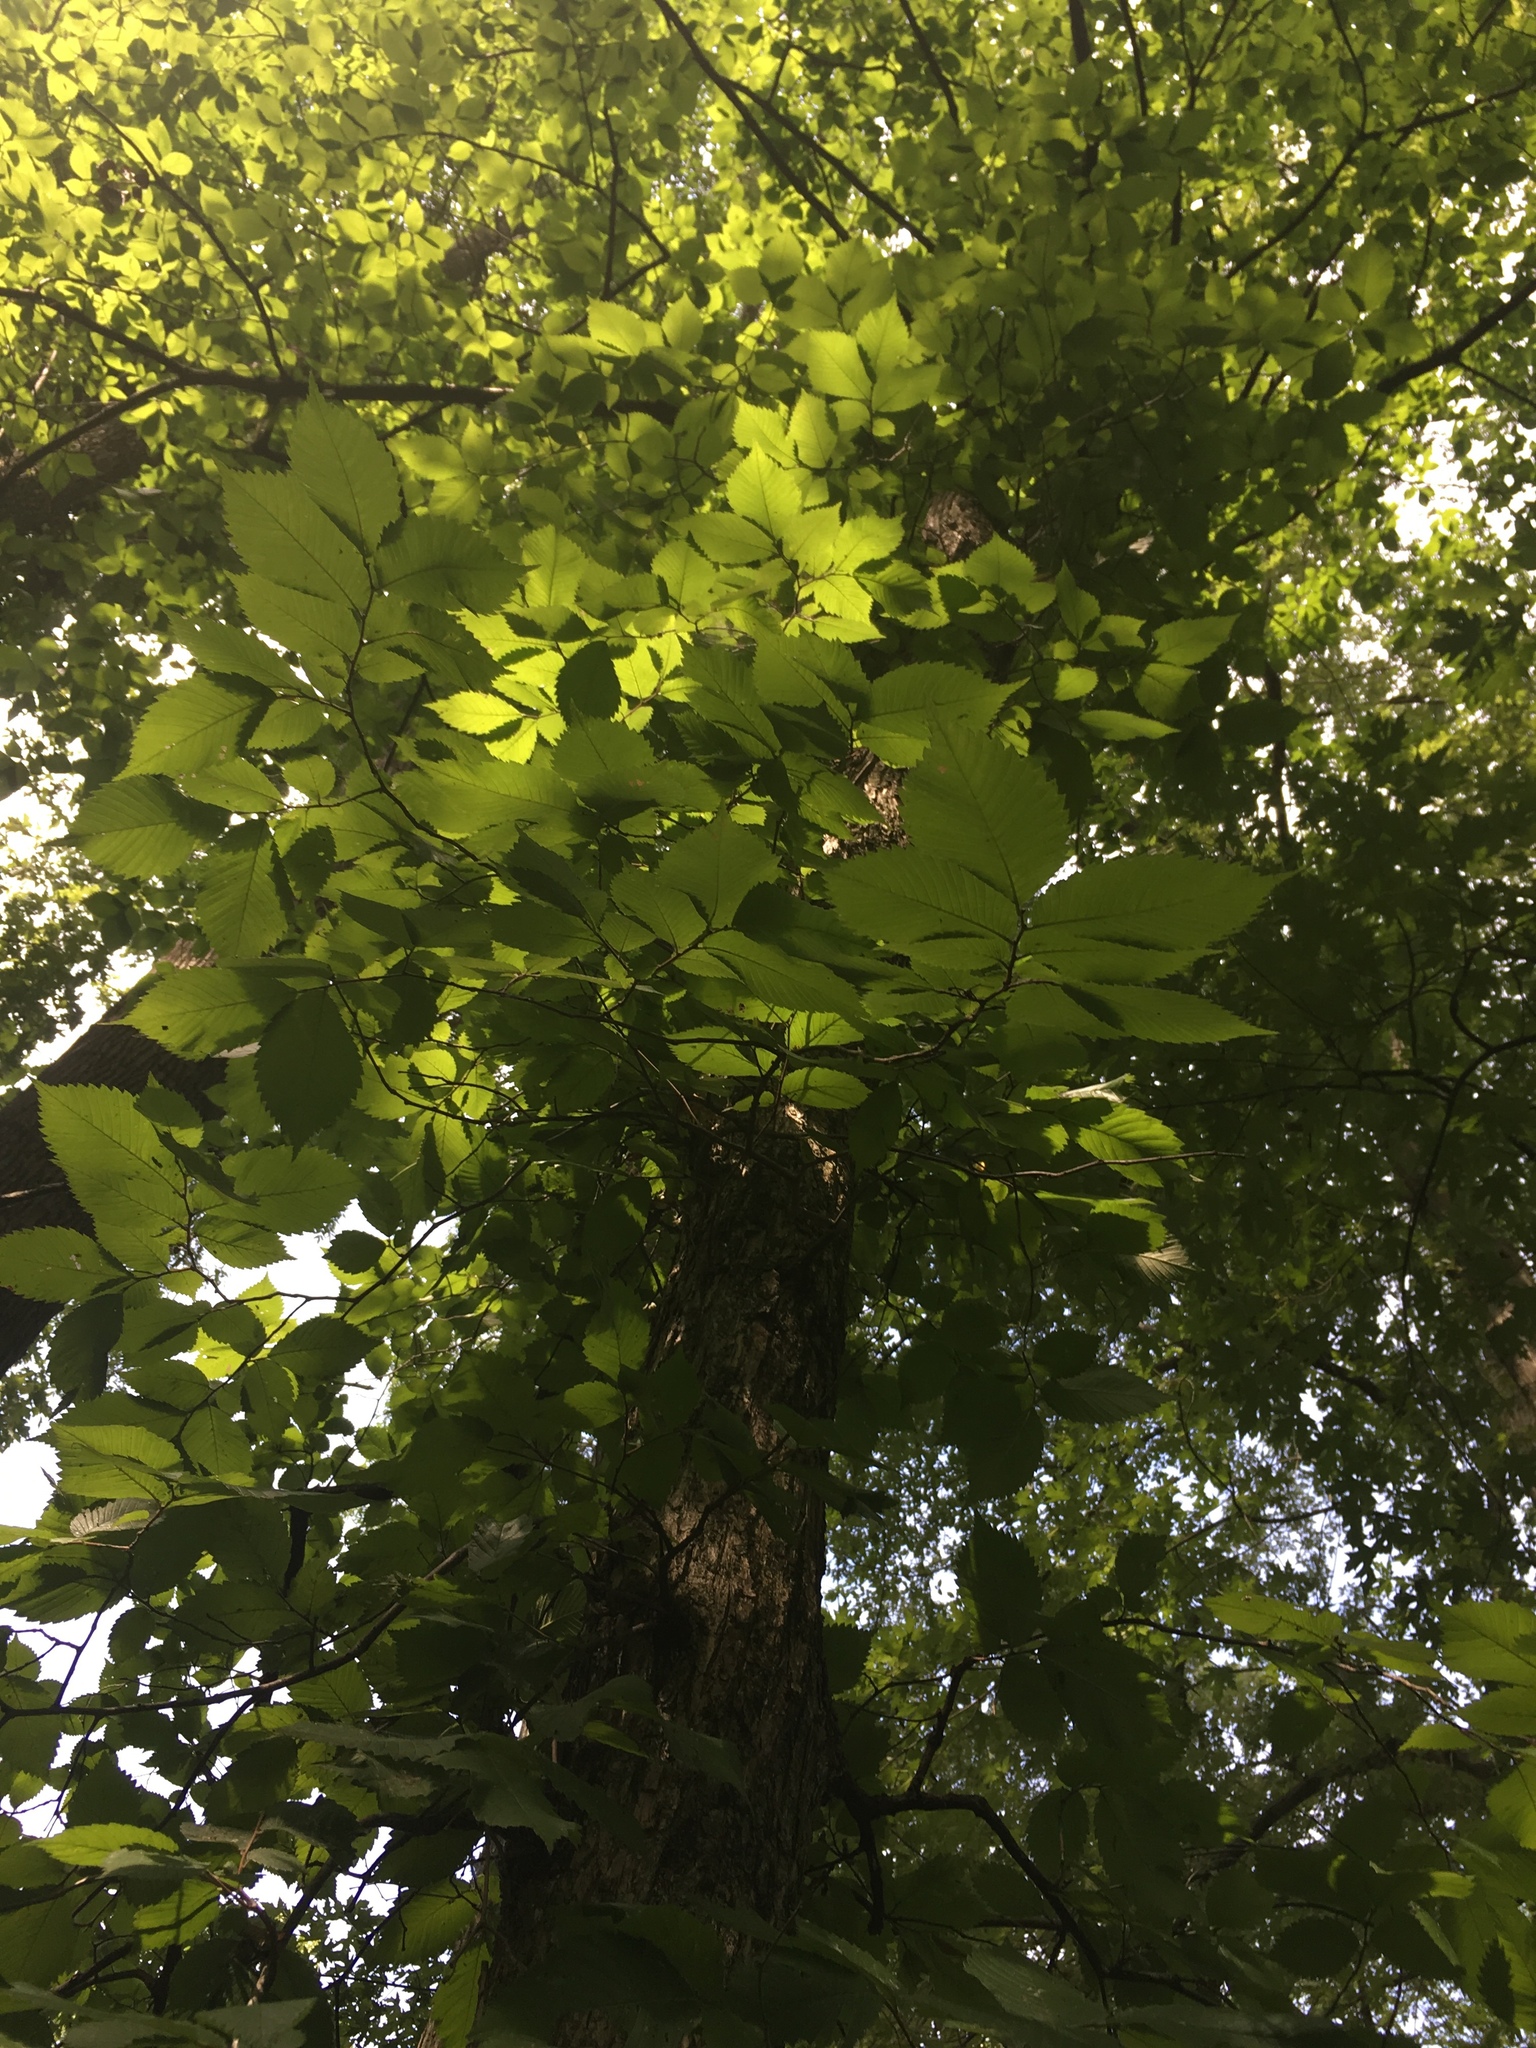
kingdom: Plantae
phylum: Tracheophyta
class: Magnoliopsida
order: Rosales
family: Ulmaceae
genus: Ulmus
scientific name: Ulmus americana
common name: American elm
